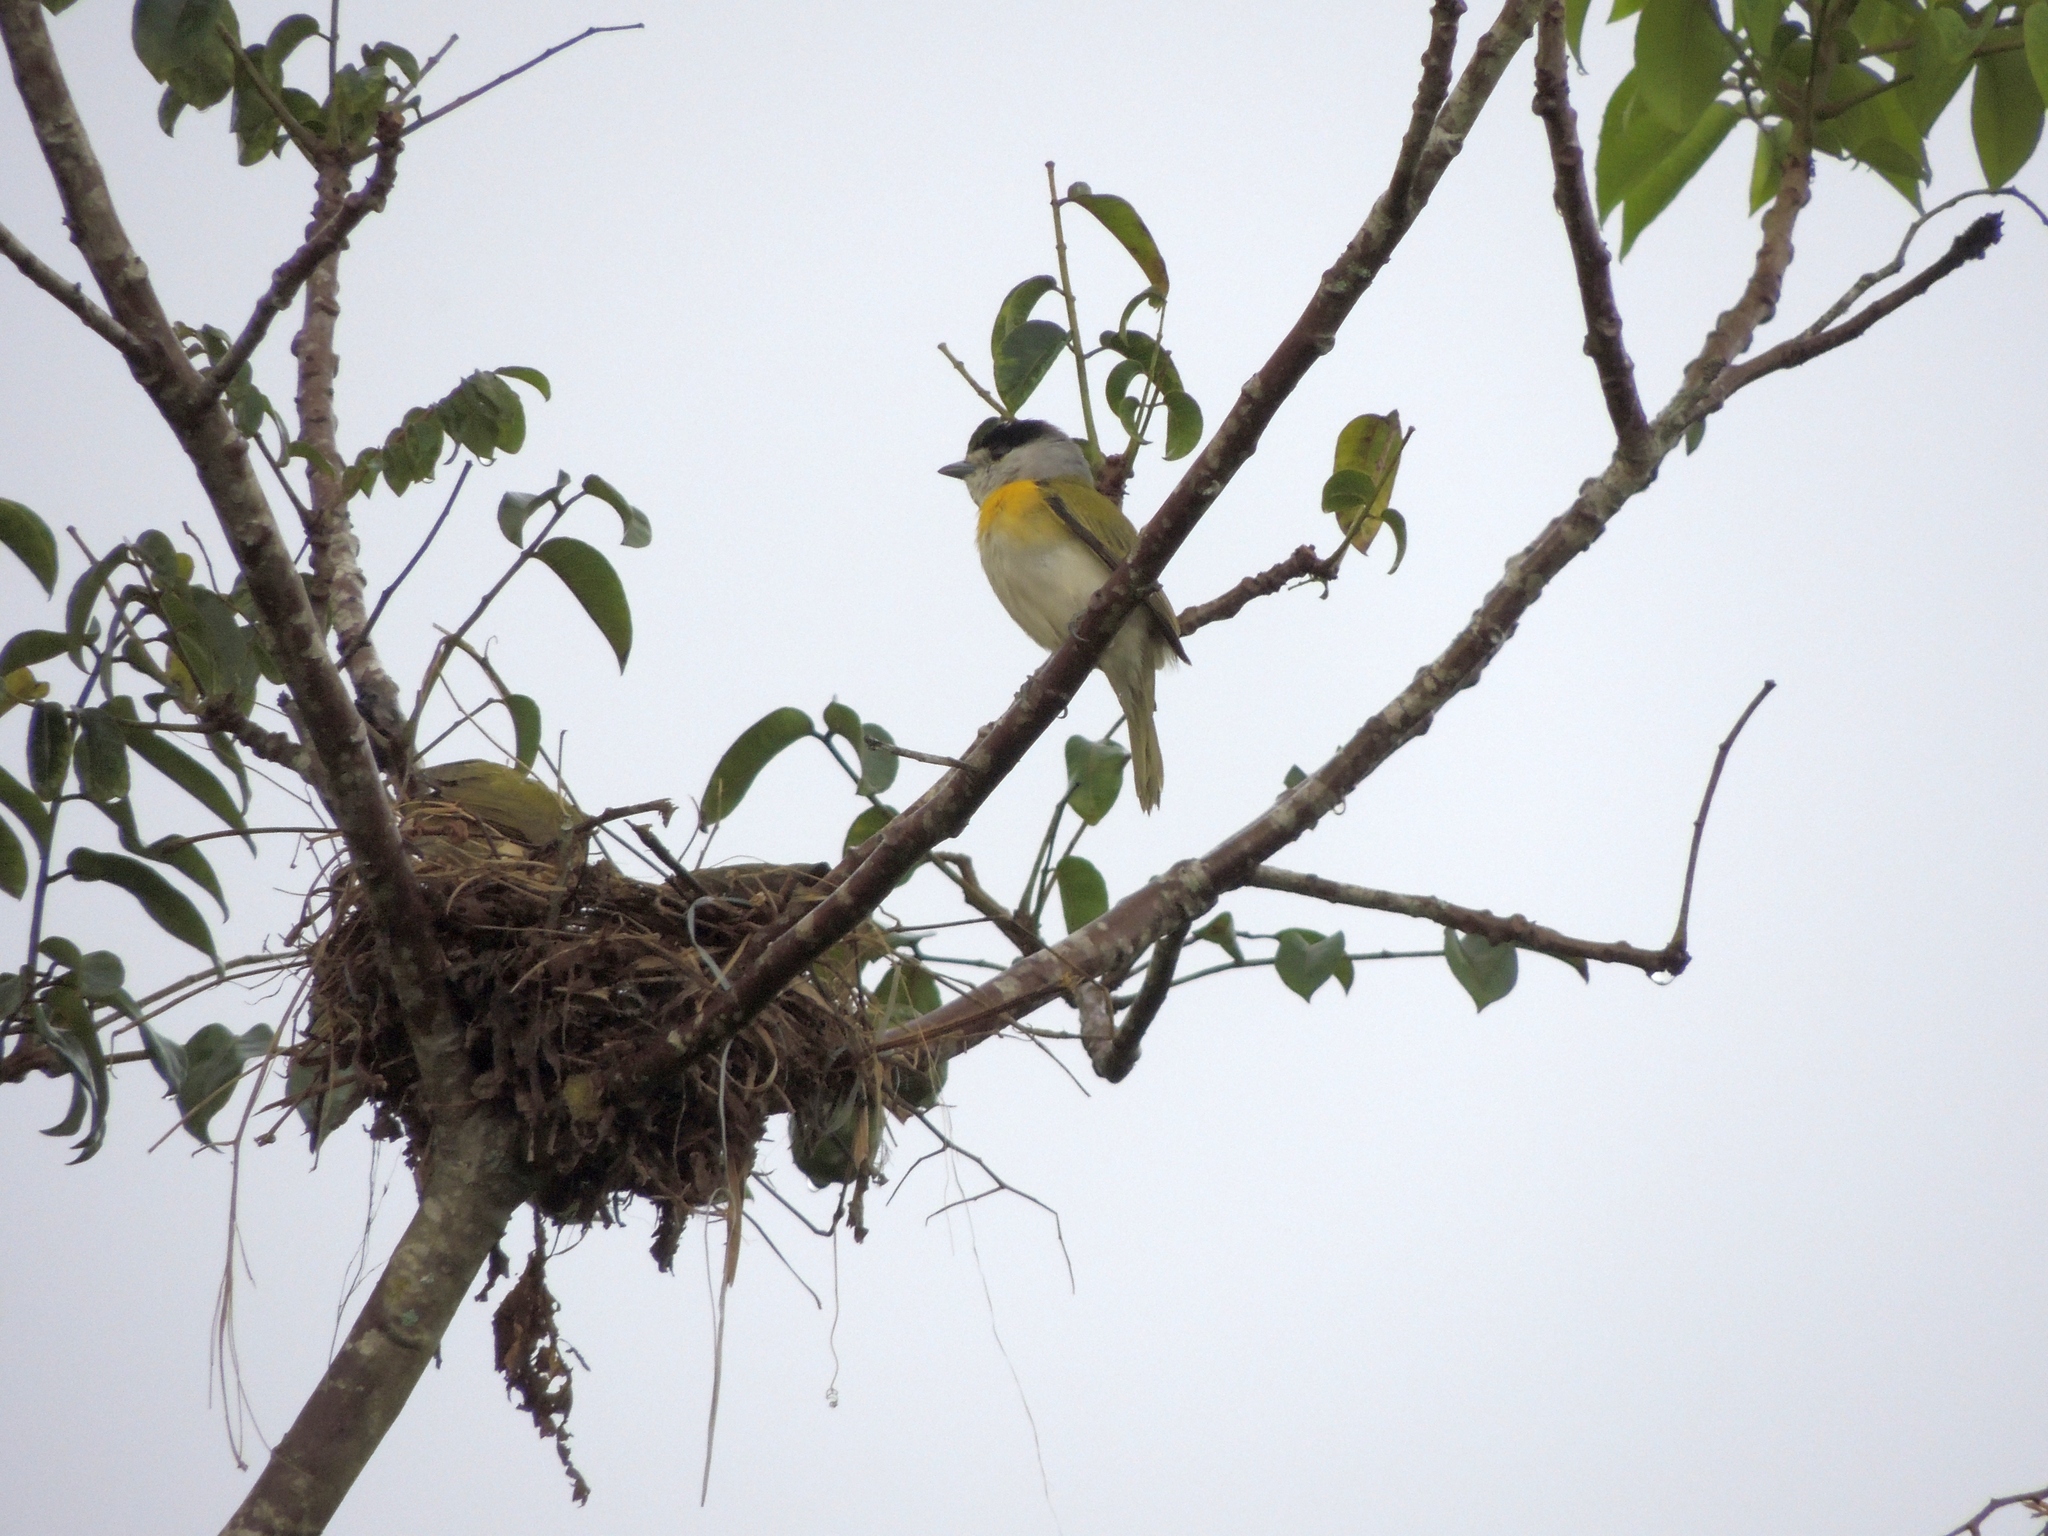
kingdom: Animalia
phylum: Chordata
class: Aves
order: Passeriformes
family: Cotingidae
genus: Pachyramphus
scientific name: Pachyramphus viridis
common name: Green-backed becard
